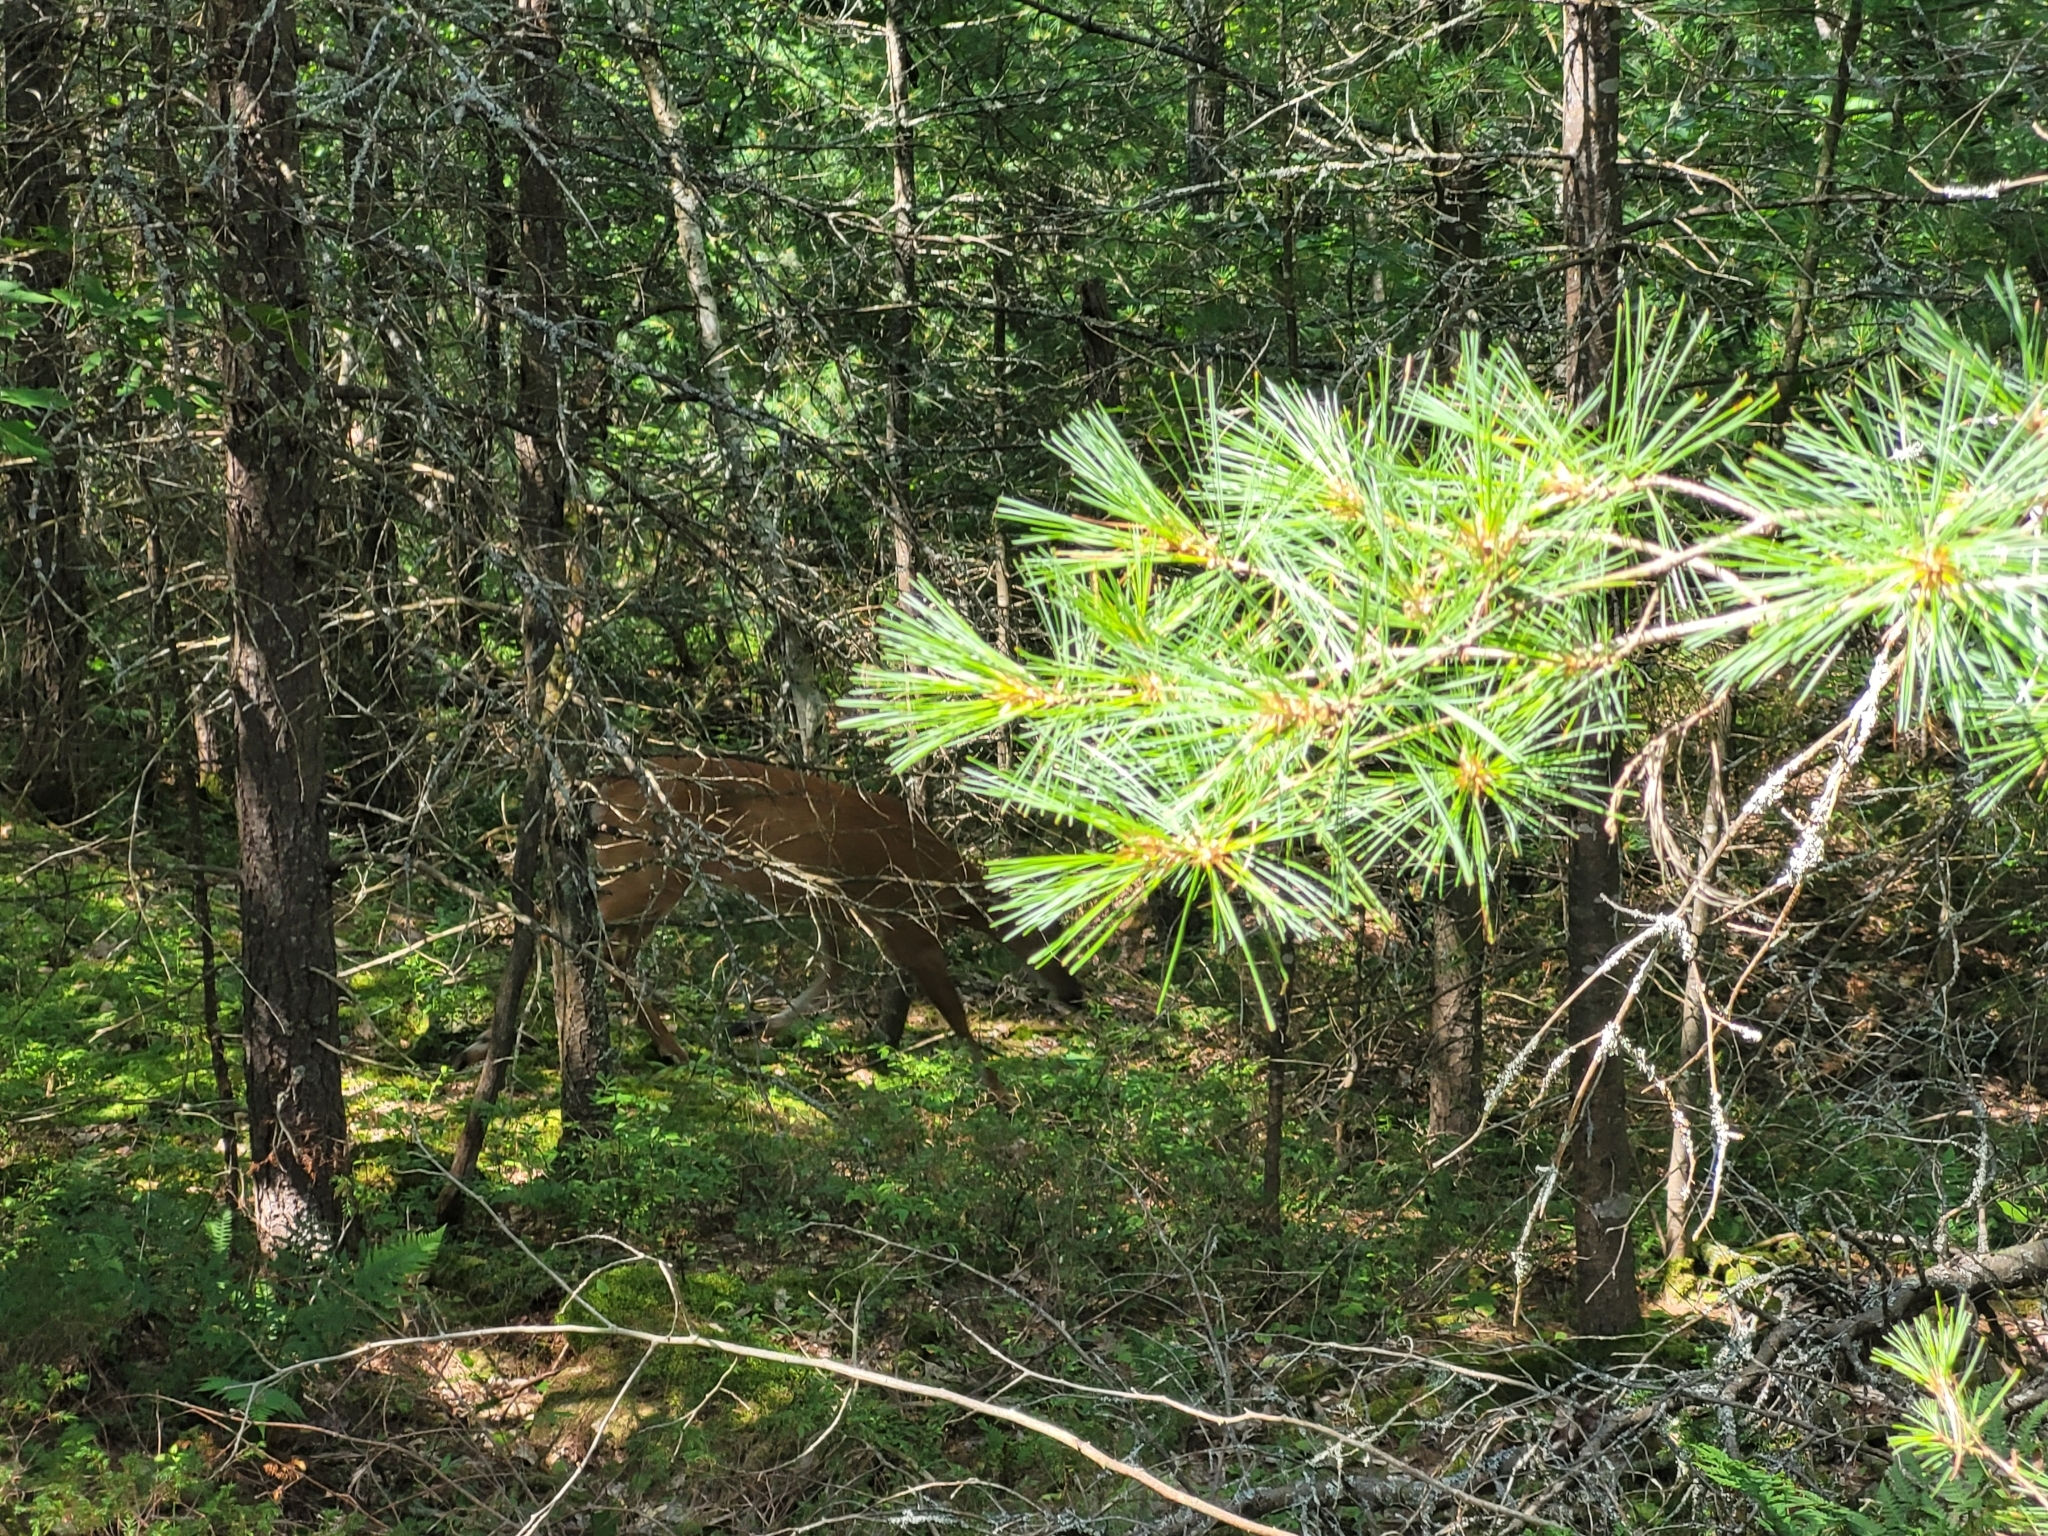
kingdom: Animalia
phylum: Chordata
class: Mammalia
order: Artiodactyla
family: Cervidae
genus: Odocoileus
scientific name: Odocoileus virginianus
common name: White-tailed deer
